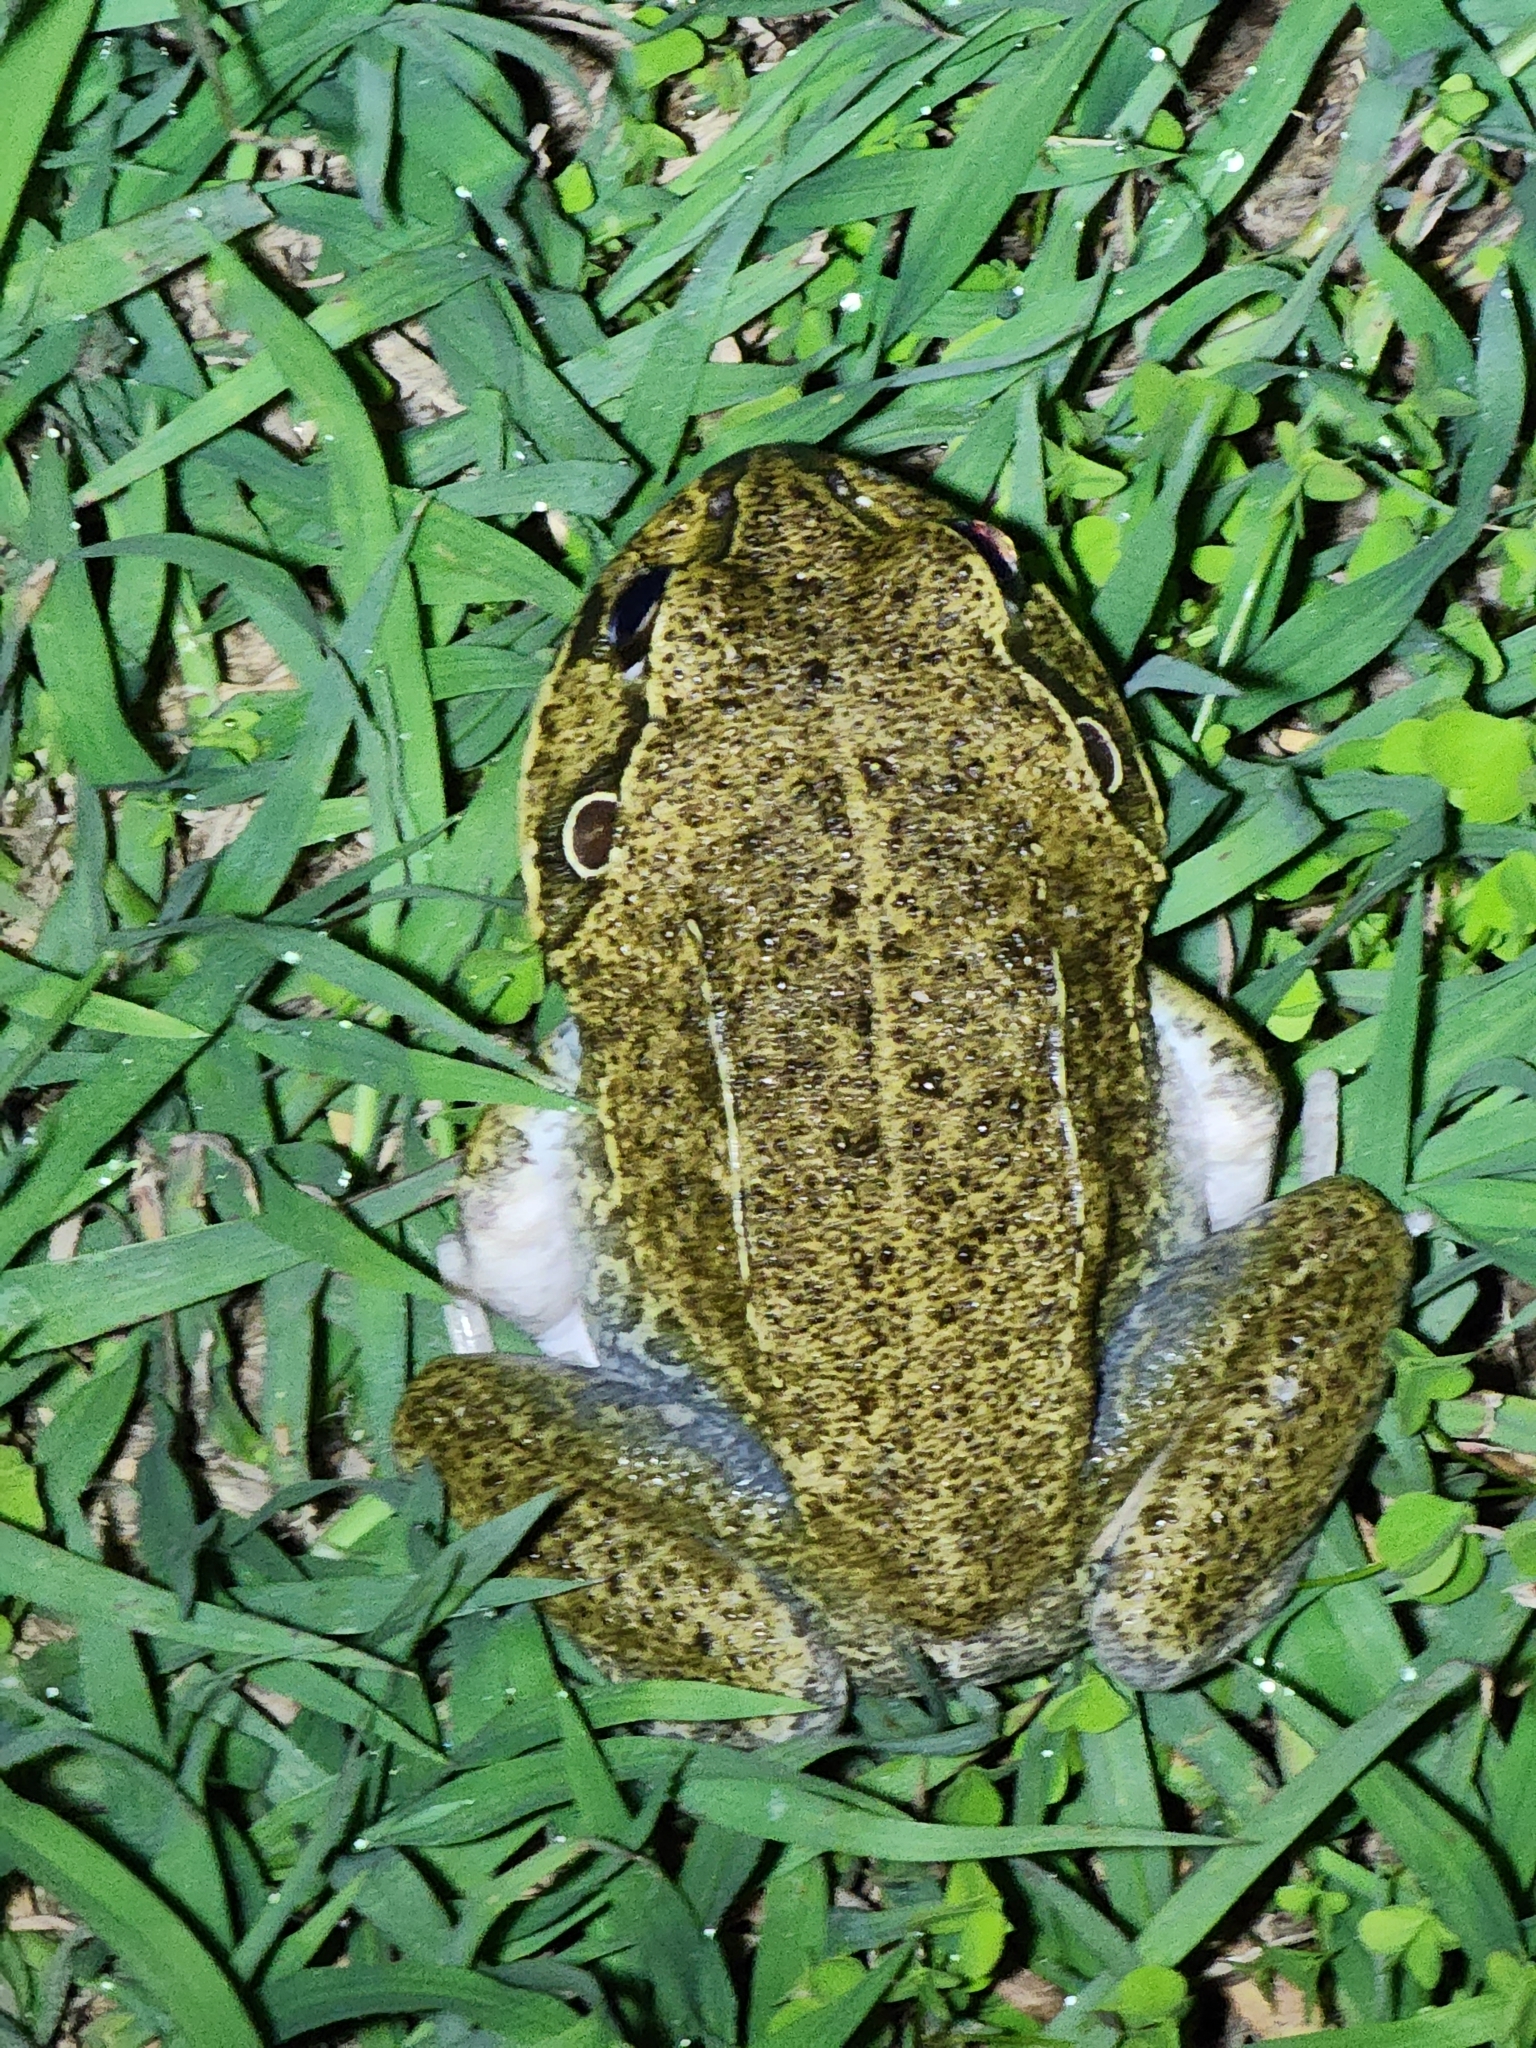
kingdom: Animalia
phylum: Chordata
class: Amphibia
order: Anura
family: Pelodryadidae
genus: Ranoidea
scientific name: Ranoidea novaehollandiae
